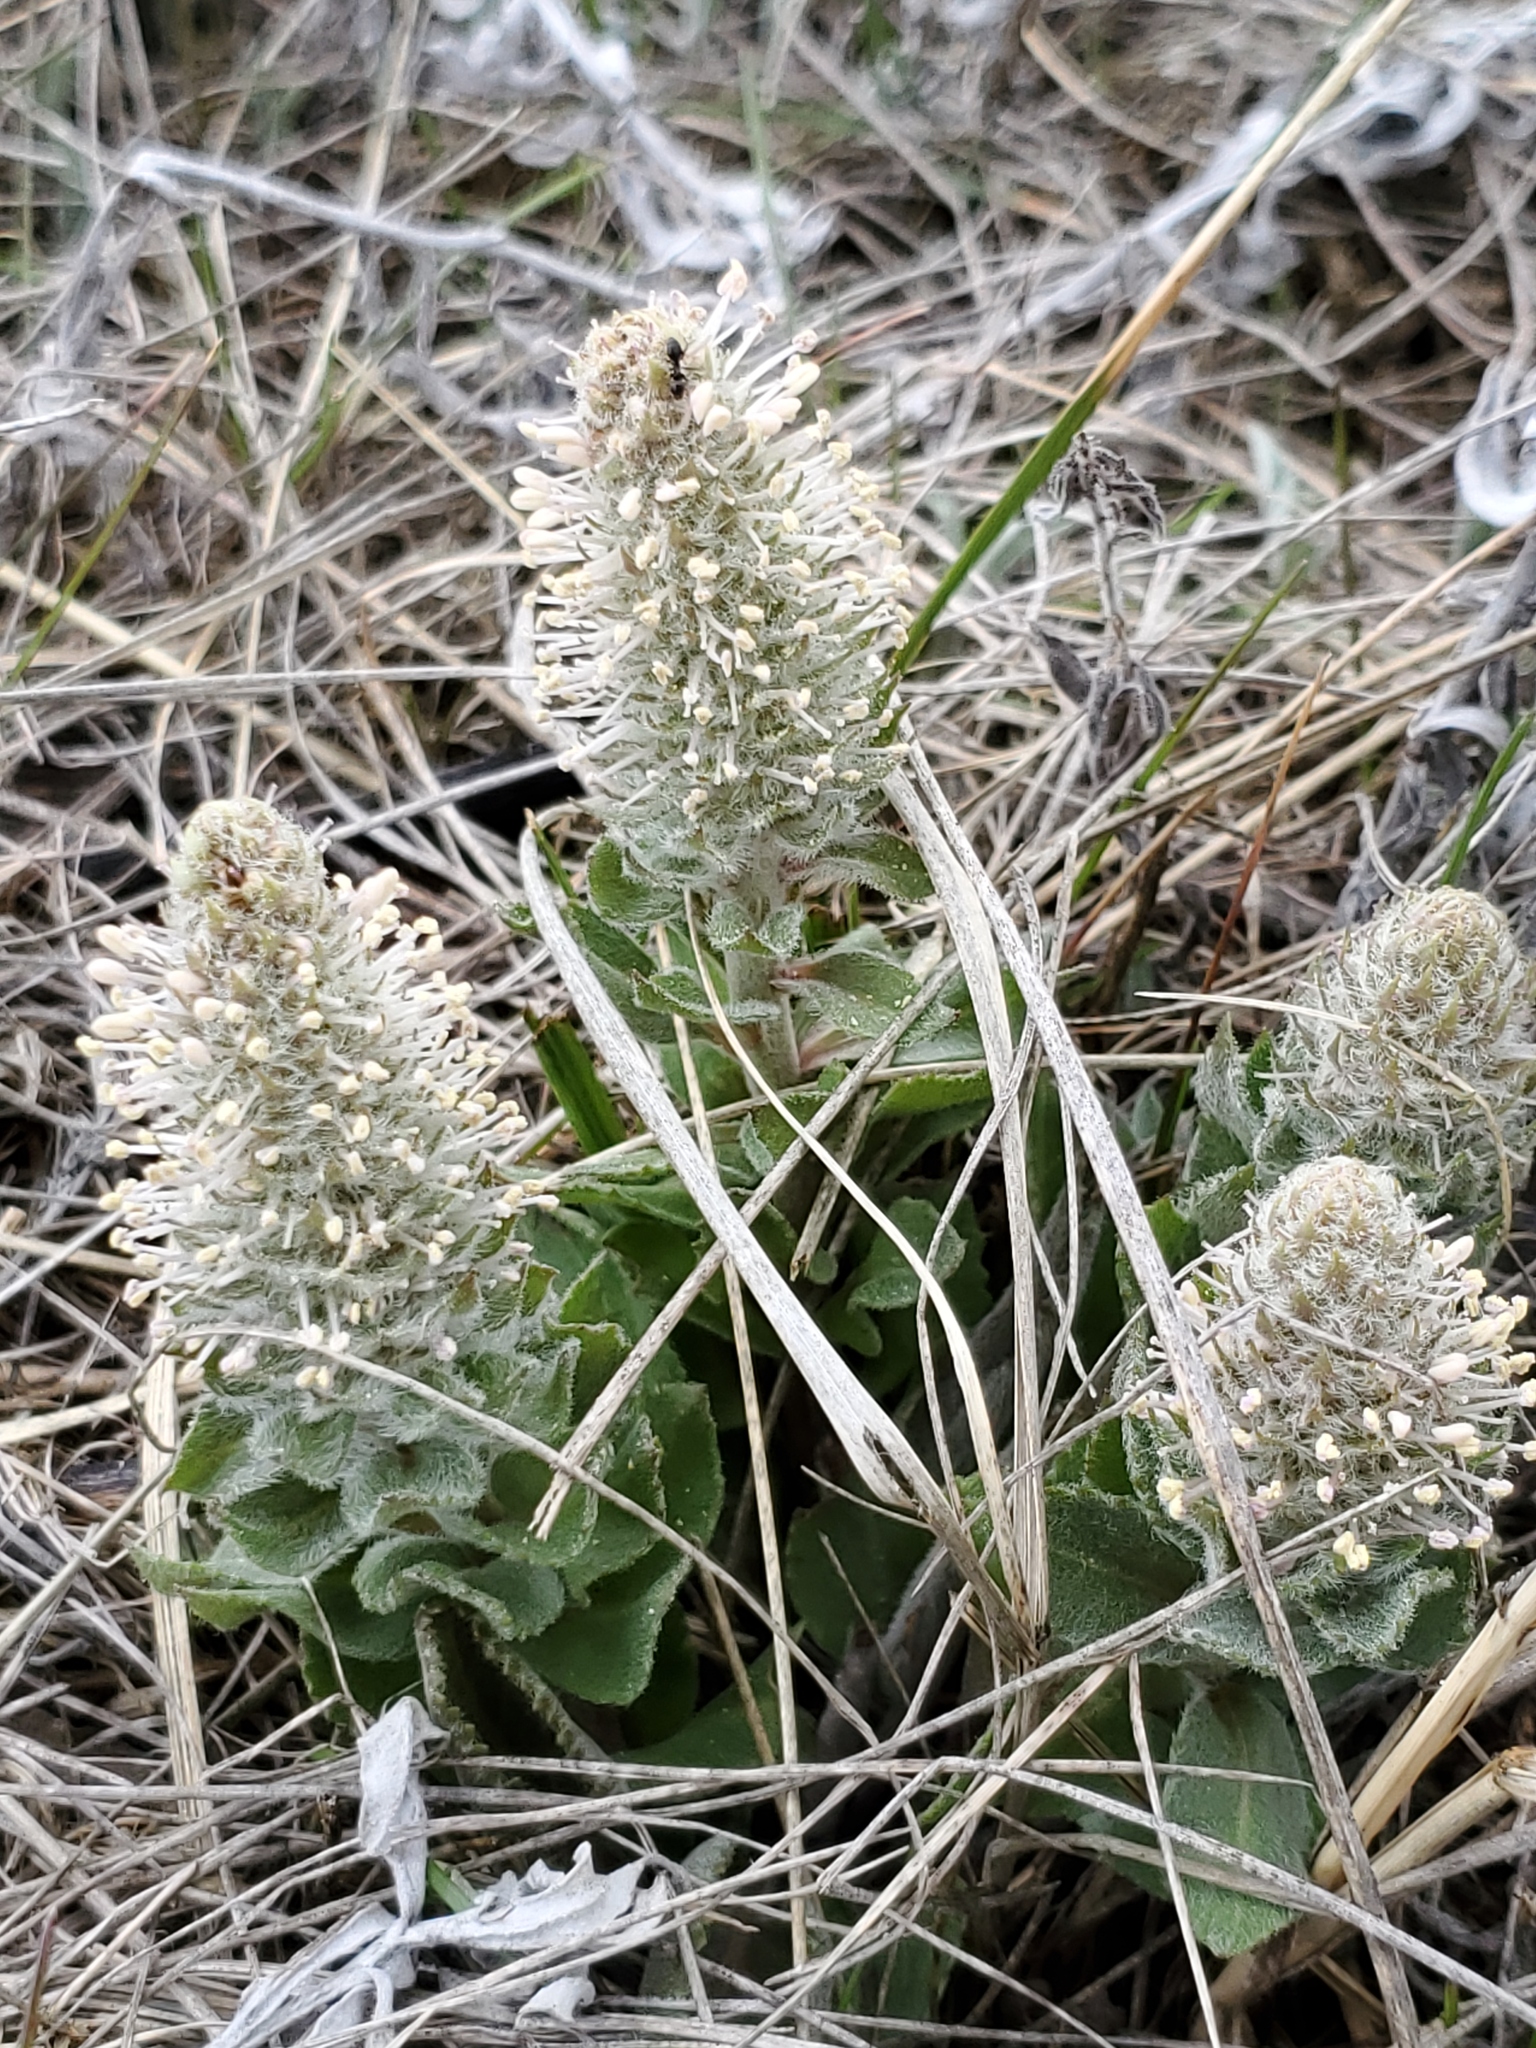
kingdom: Plantae
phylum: Tracheophyta
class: Magnoliopsida
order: Lamiales
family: Plantaginaceae
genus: Synthyris
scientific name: Synthyris wyomingensis
